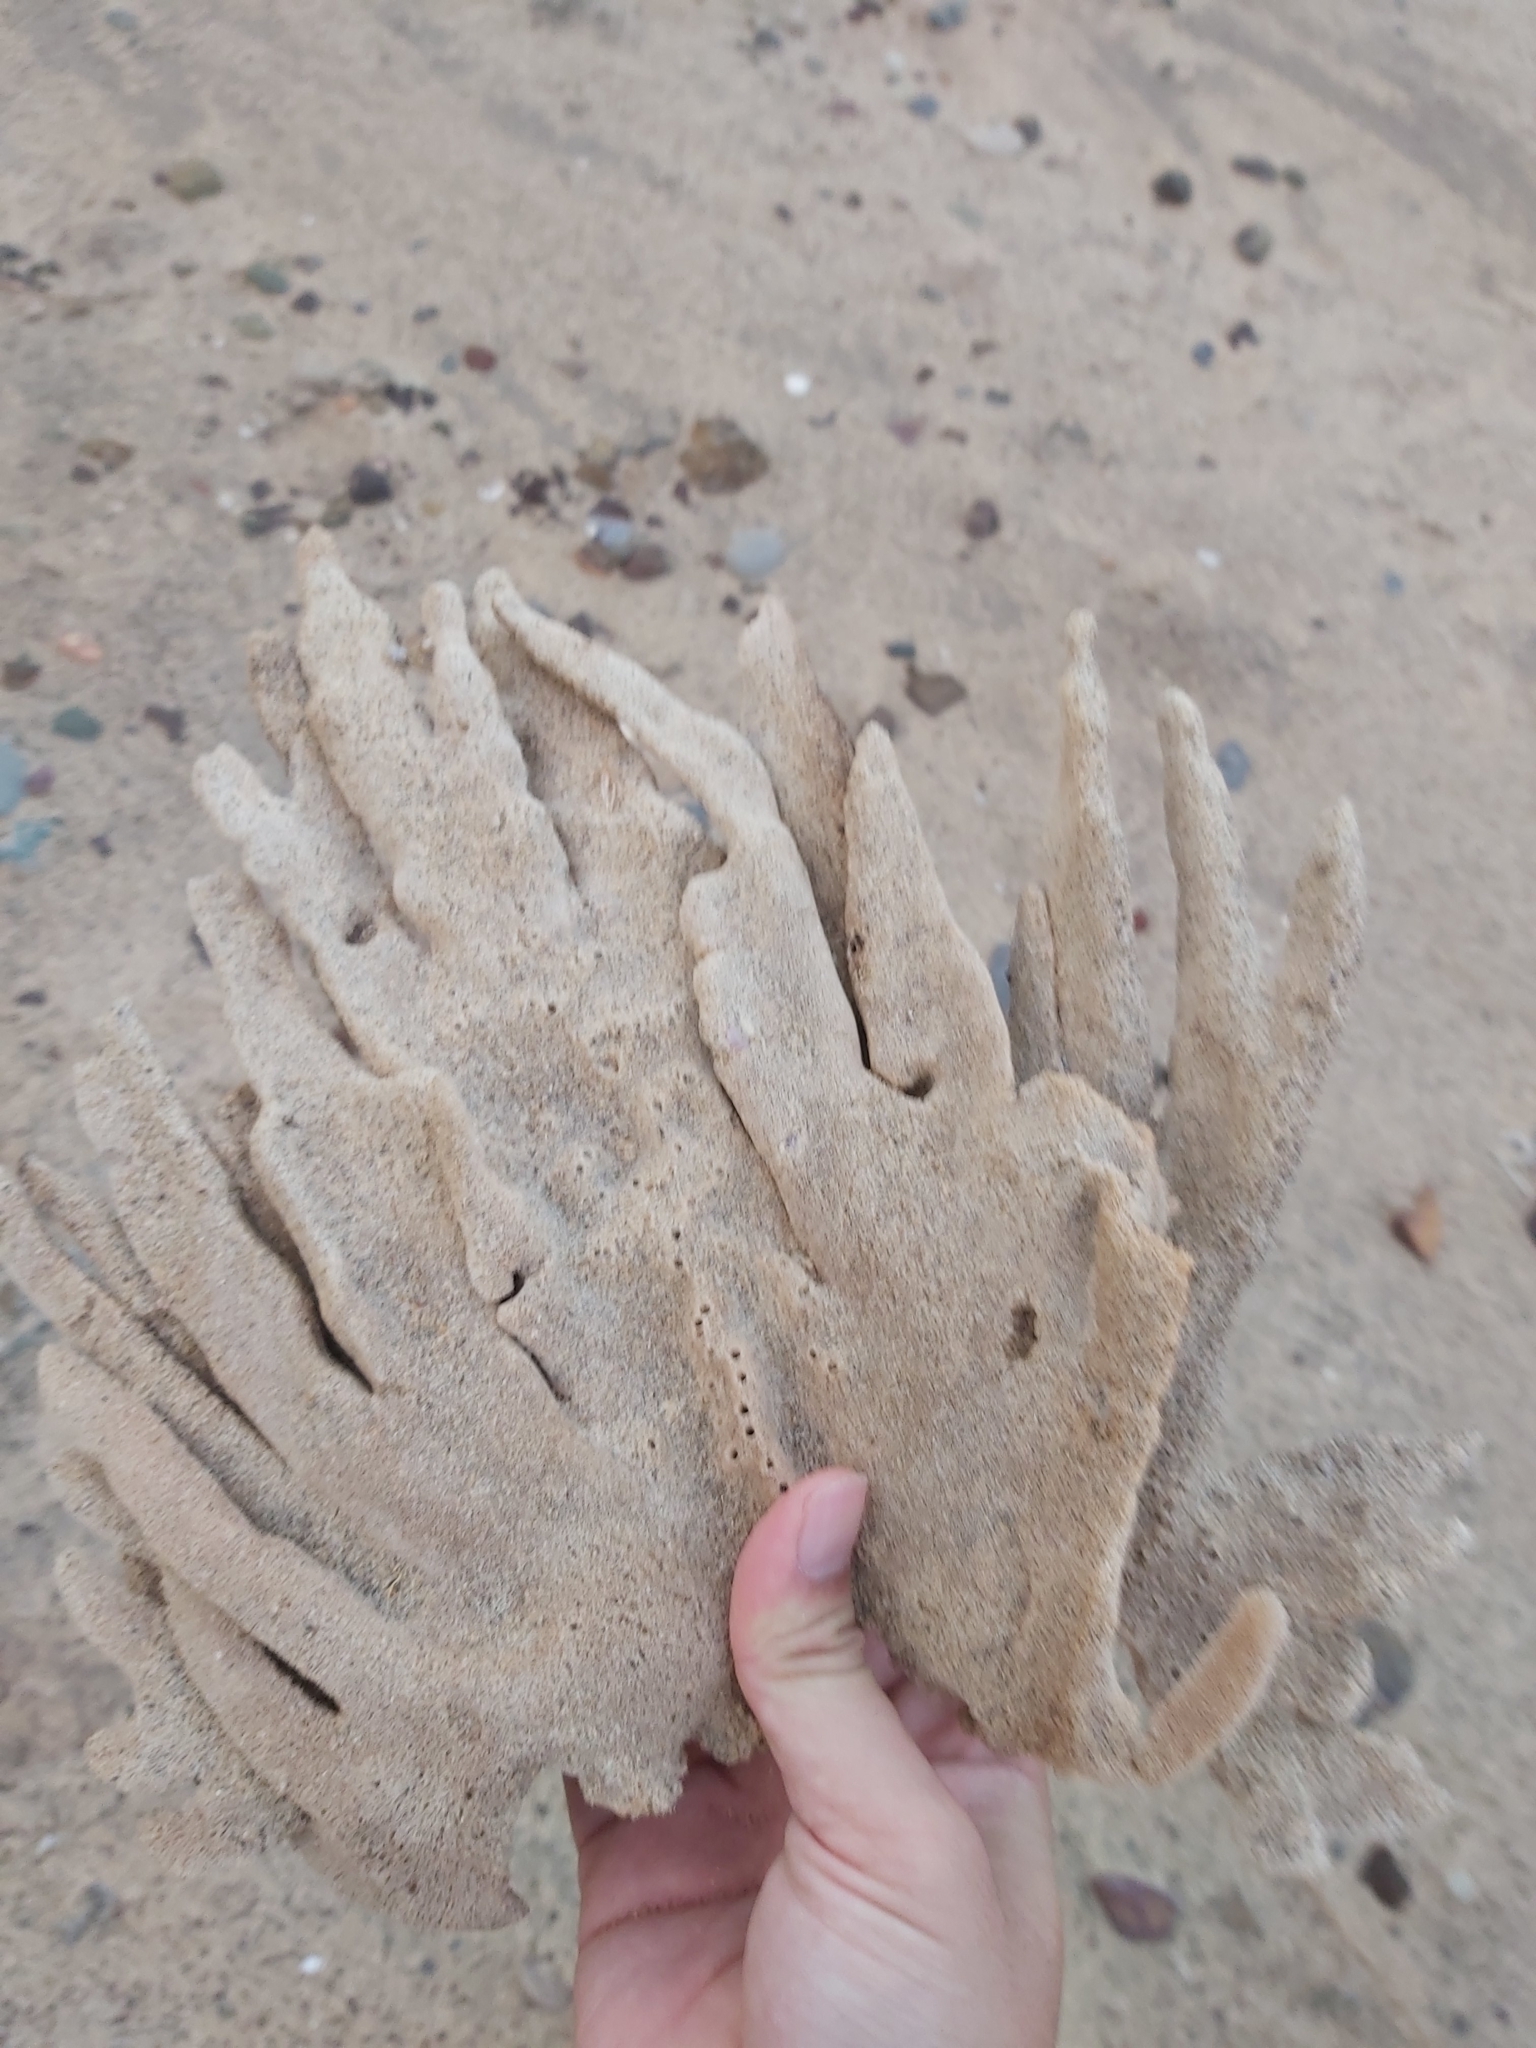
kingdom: Animalia
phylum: Porifera
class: Demospongiae
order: Haplosclerida
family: Callyspongiidae
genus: Callyspongia
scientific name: Callyspongia manus
